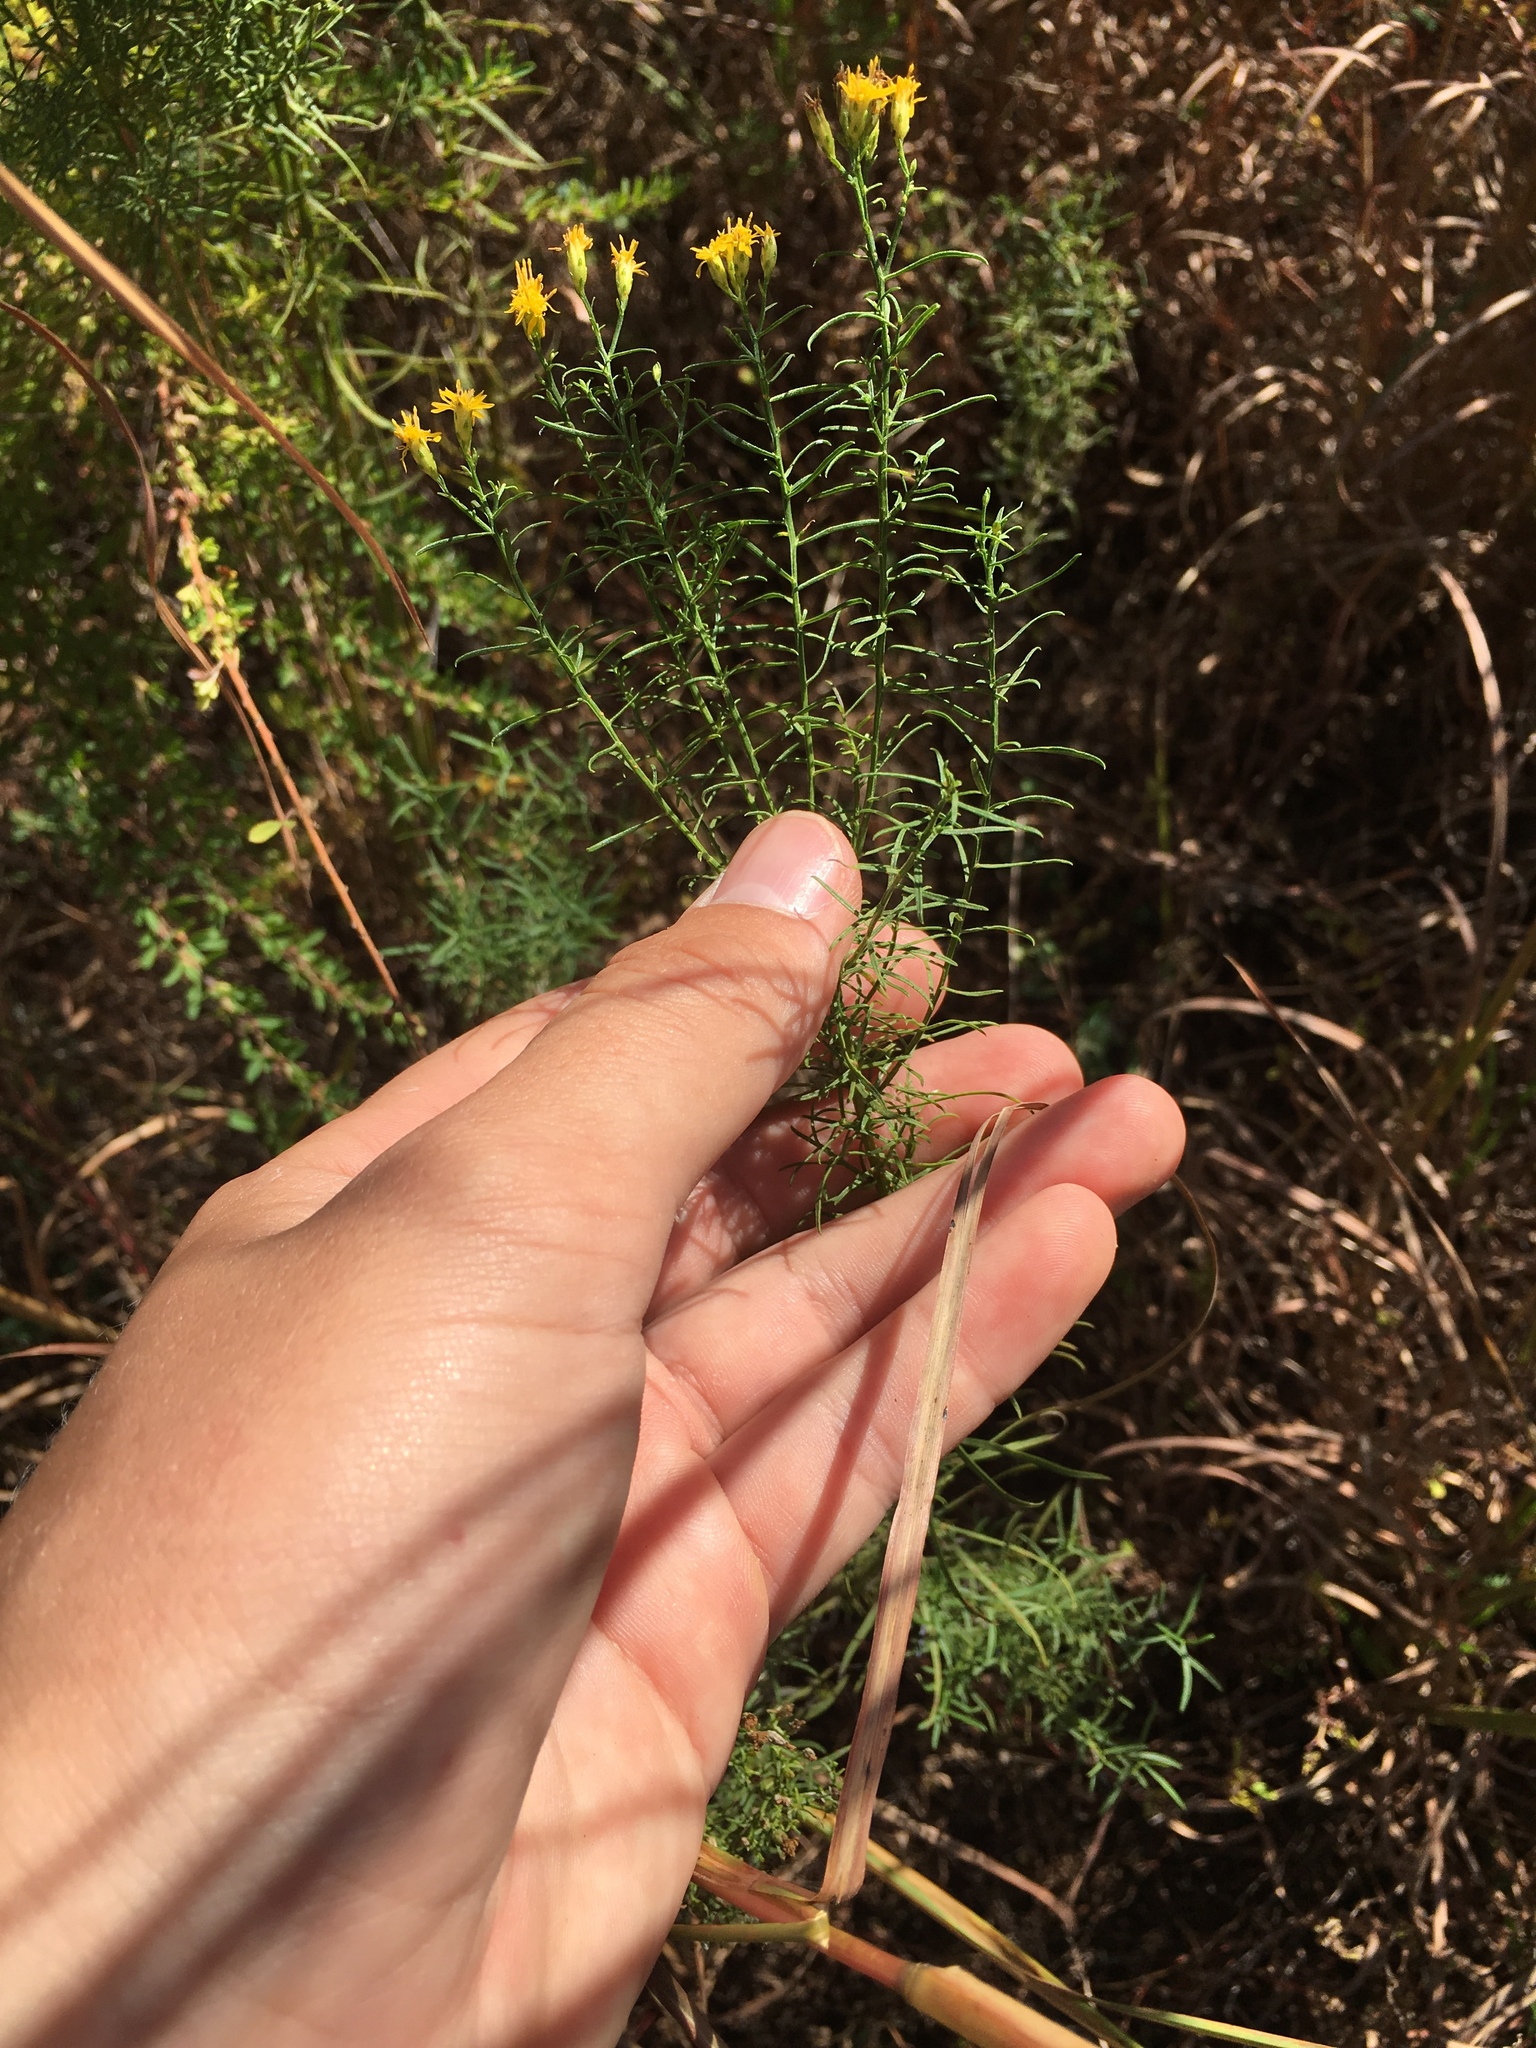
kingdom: Plantae
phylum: Tracheophyta
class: Magnoliopsida
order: Asterales
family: Asteraceae
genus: Euthamia
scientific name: Euthamia caroliniana
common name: Coastal plain goldentop
